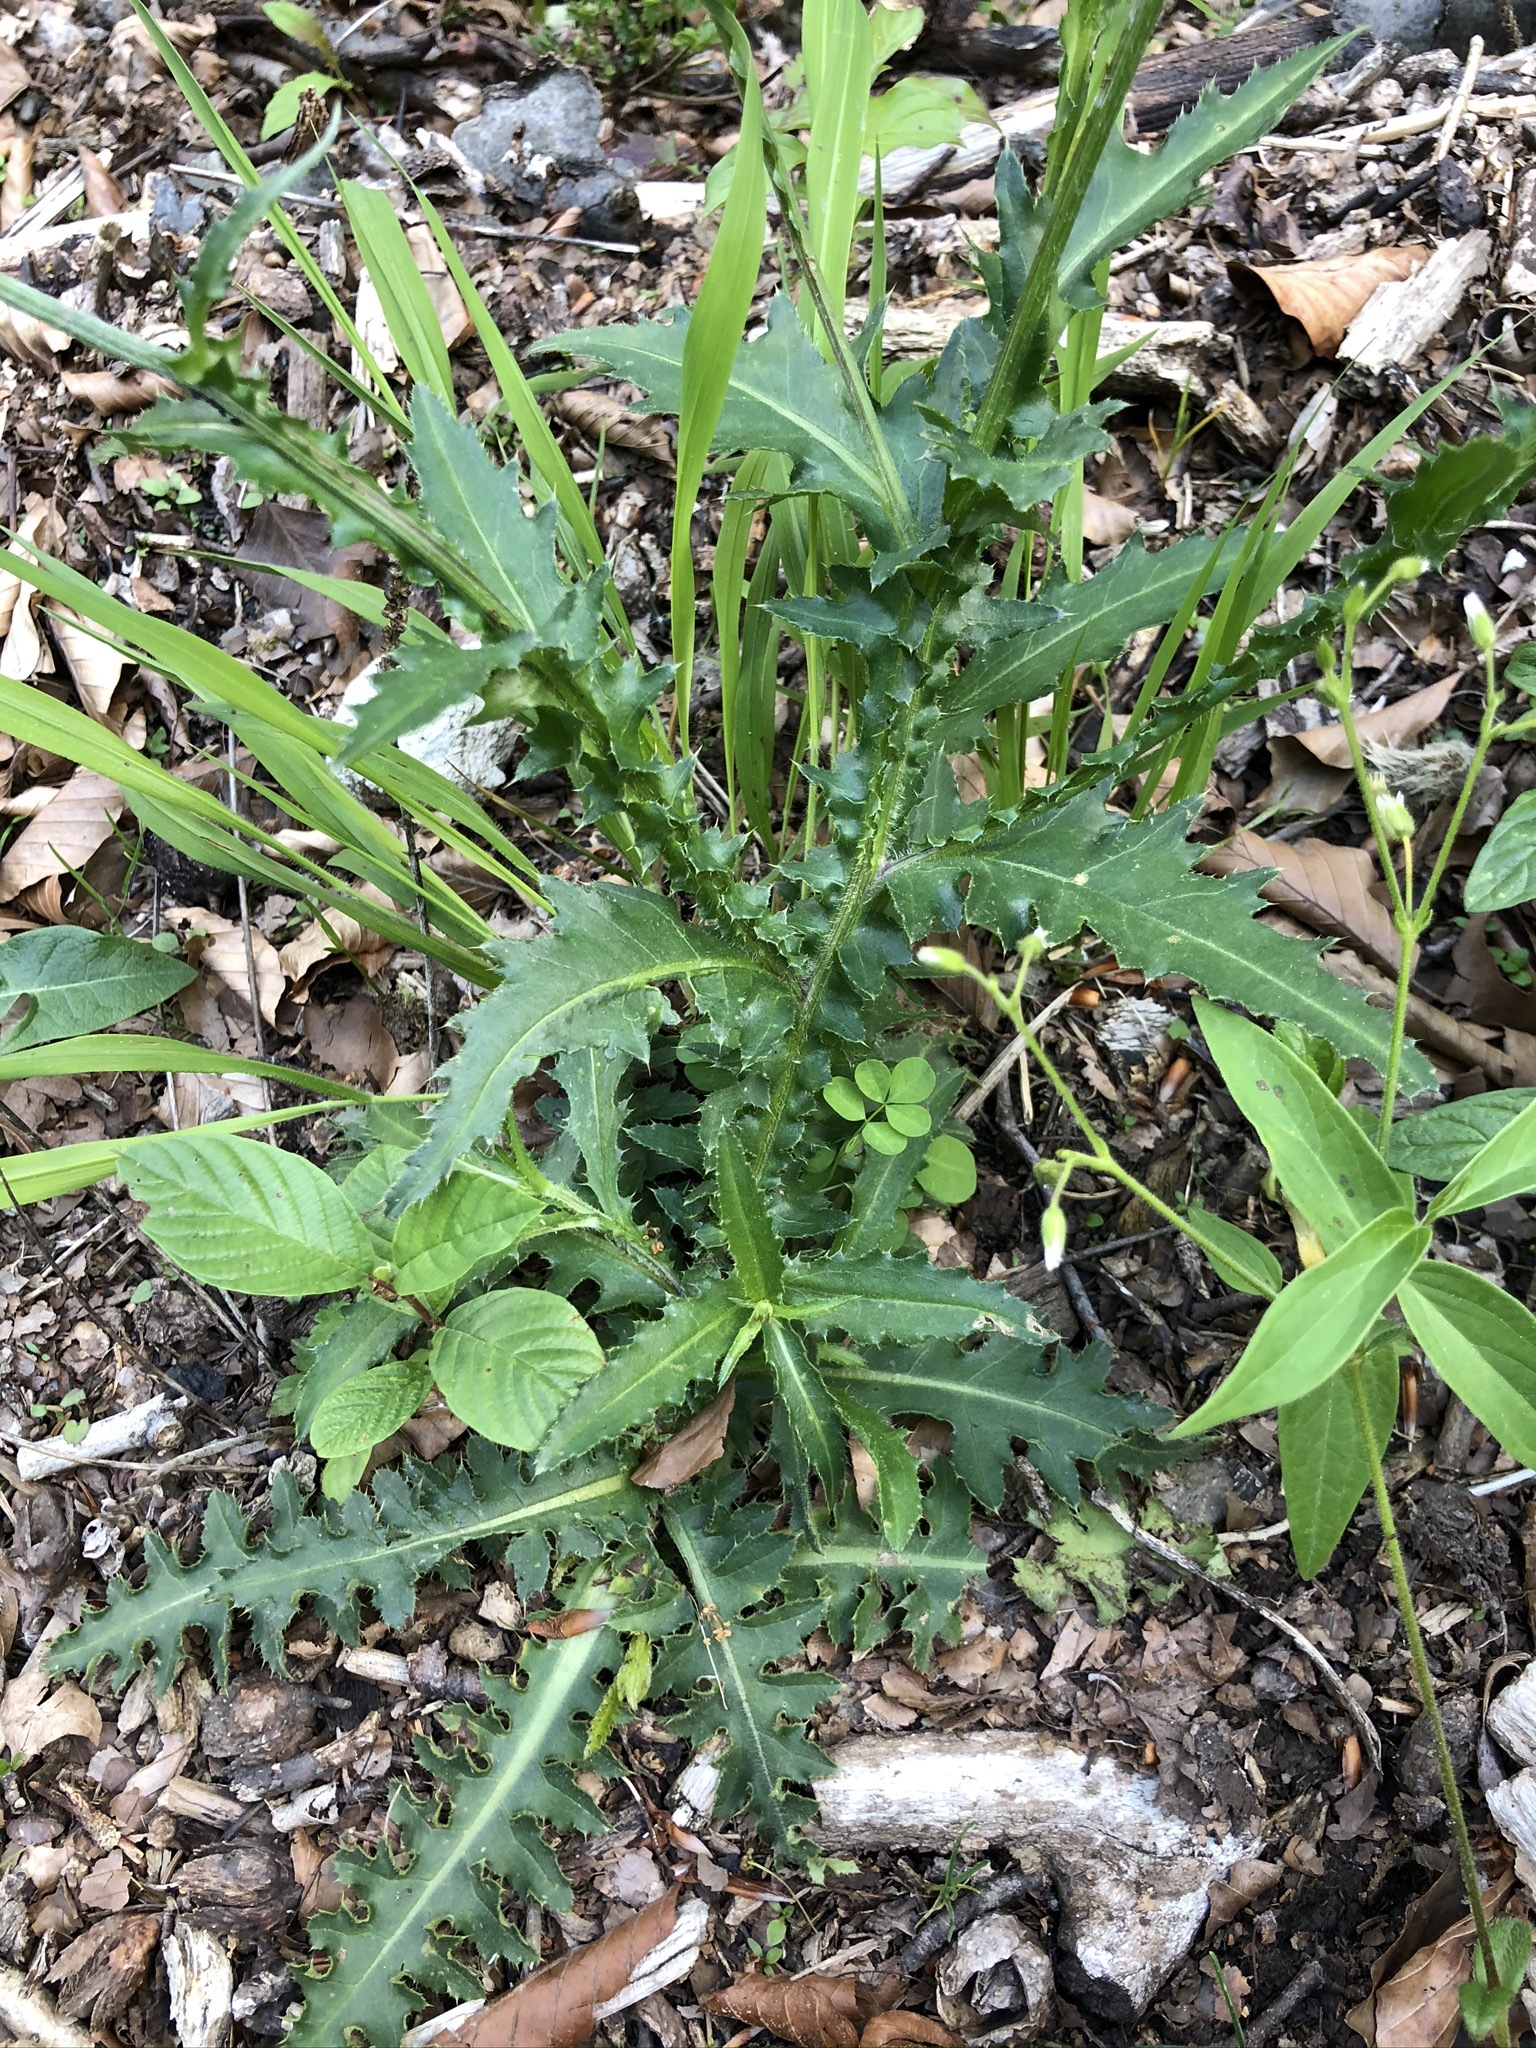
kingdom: Plantae
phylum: Tracheophyta
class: Magnoliopsida
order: Asterales
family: Asteraceae
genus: Carduus
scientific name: Carduus defloratus
